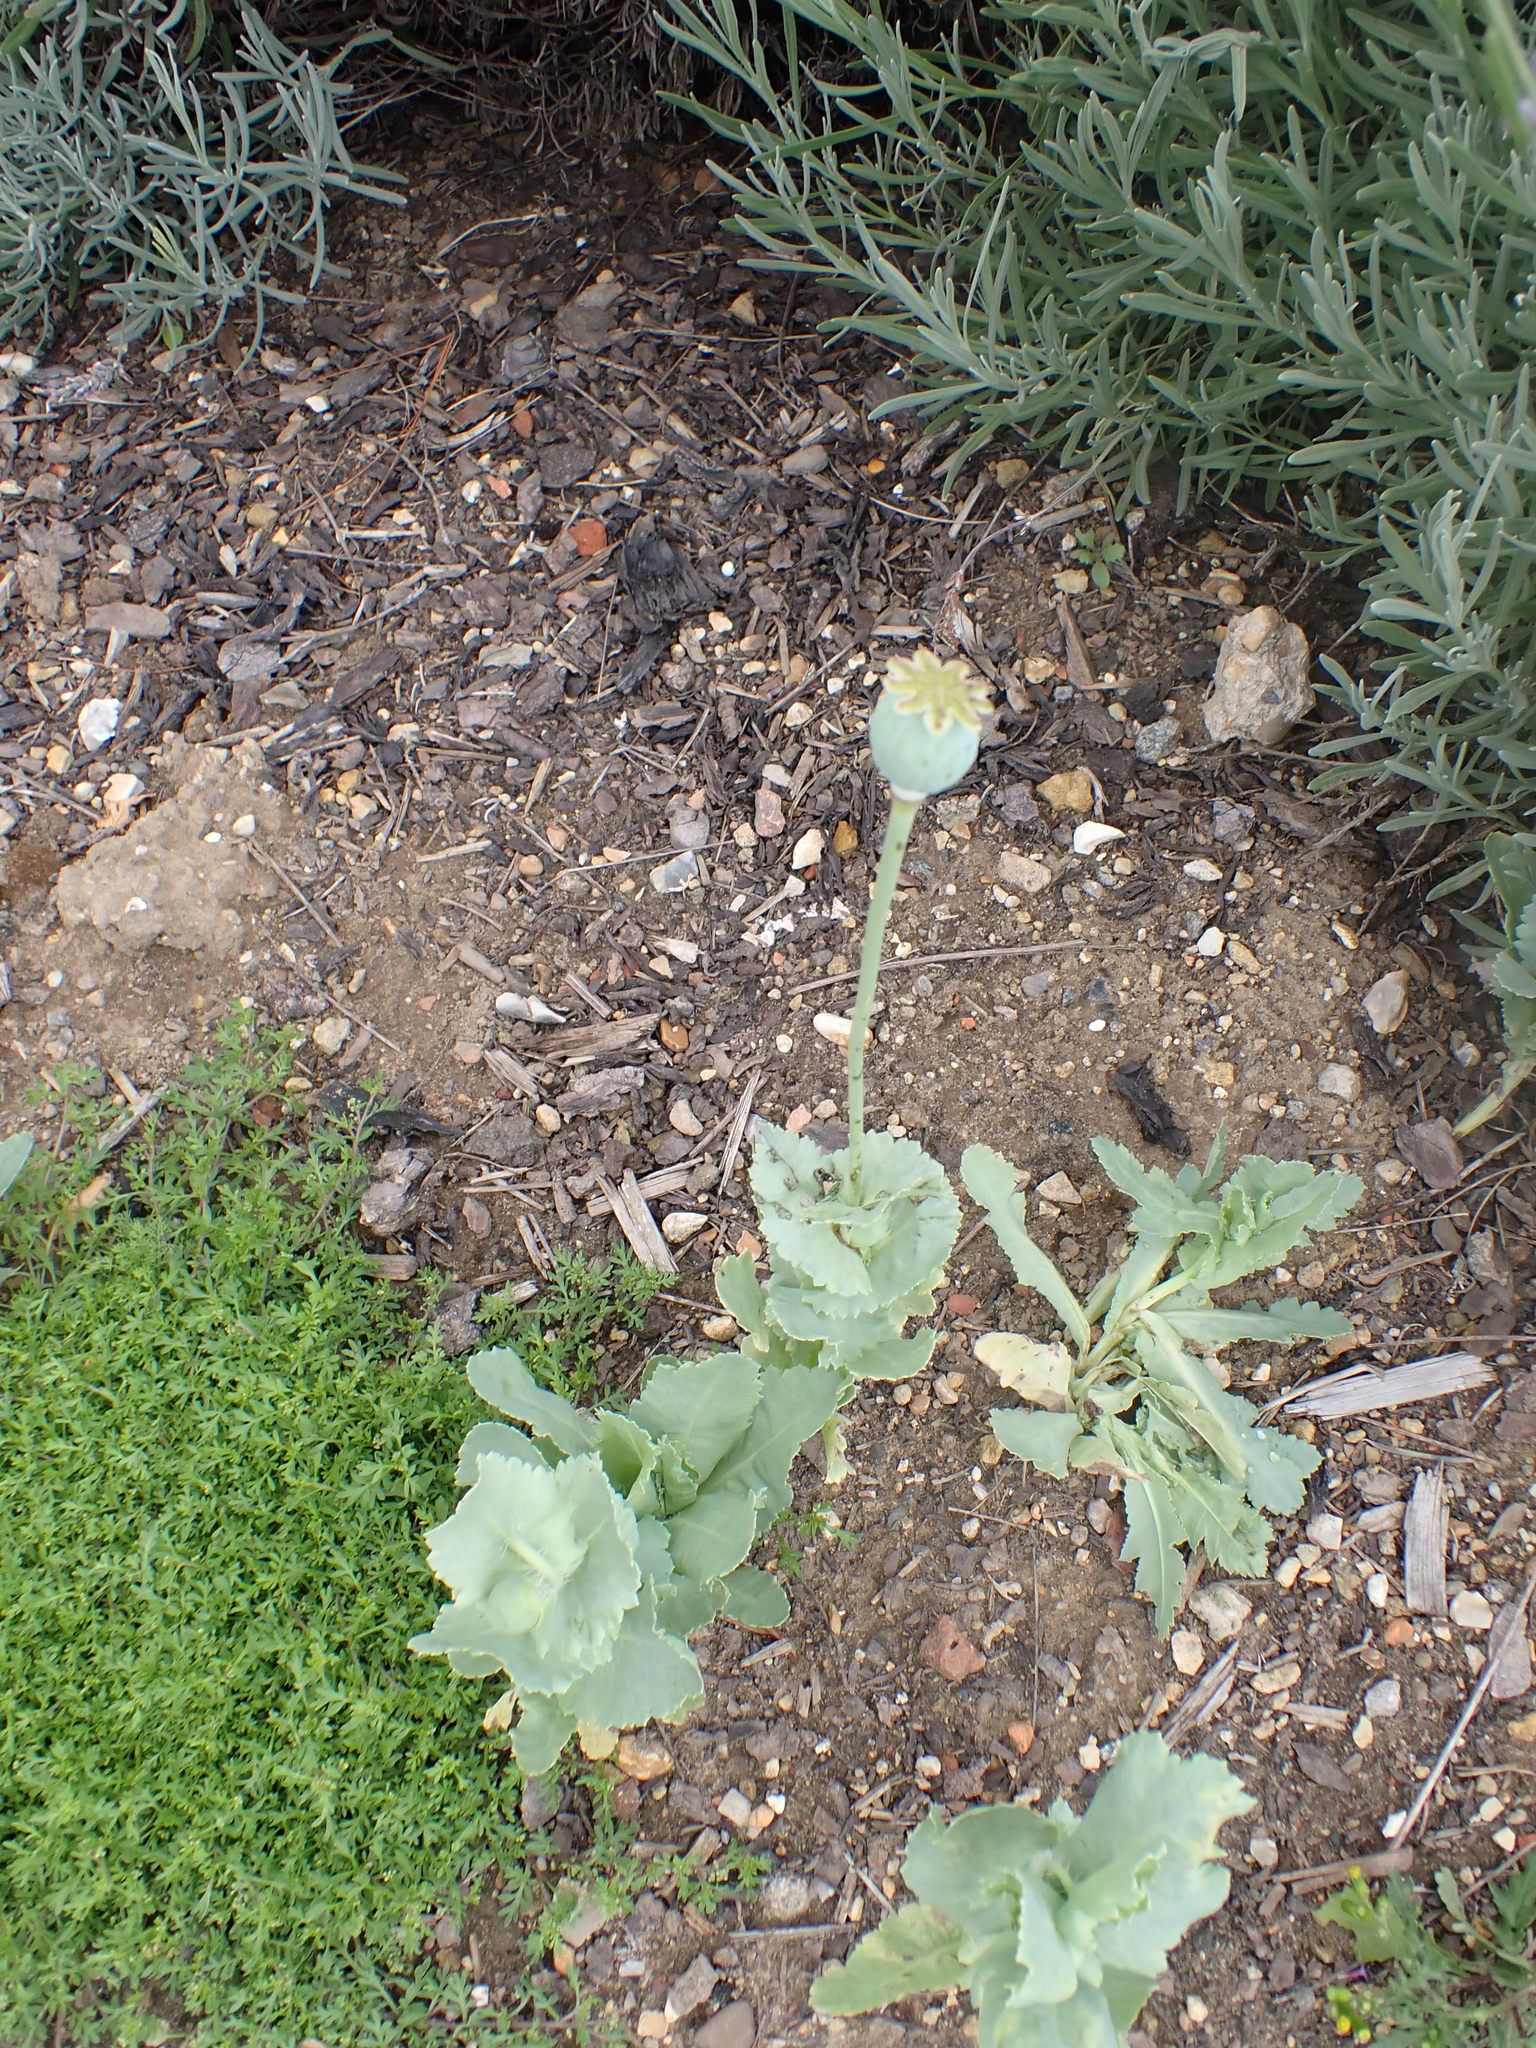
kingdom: Plantae
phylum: Tracheophyta
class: Magnoliopsida
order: Ranunculales
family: Papaveraceae
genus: Papaver
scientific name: Papaver somniferum
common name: Opium poppy
